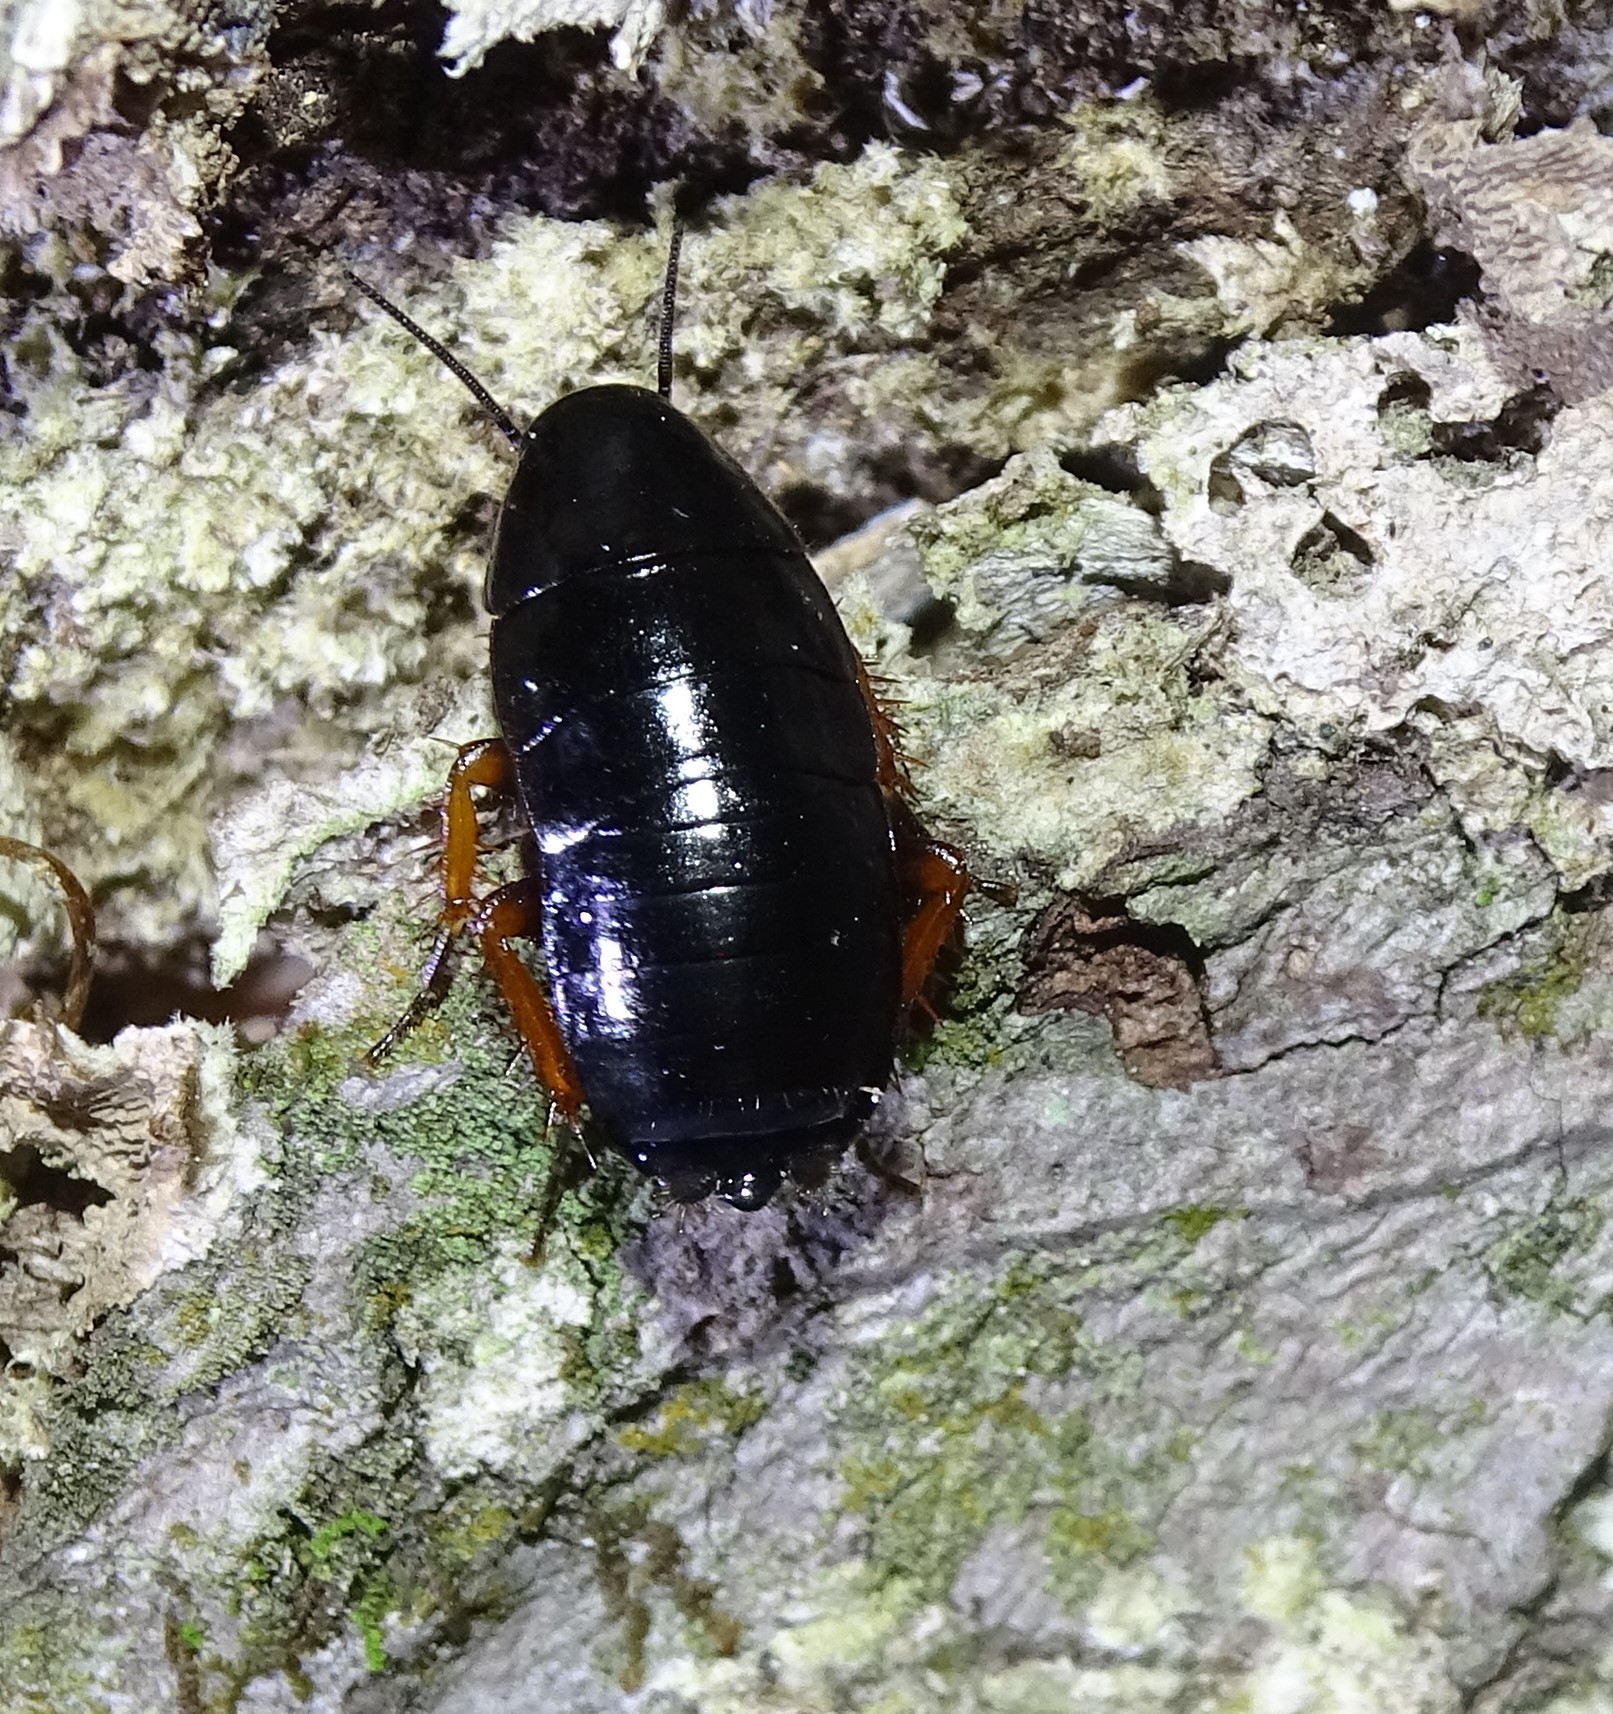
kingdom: Animalia
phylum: Arthropoda
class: Insecta
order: Blattodea
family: Ectobiidae
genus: Ischnoptera
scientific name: Ischnoptera deropeltiformis
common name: Dark wood cockroach
